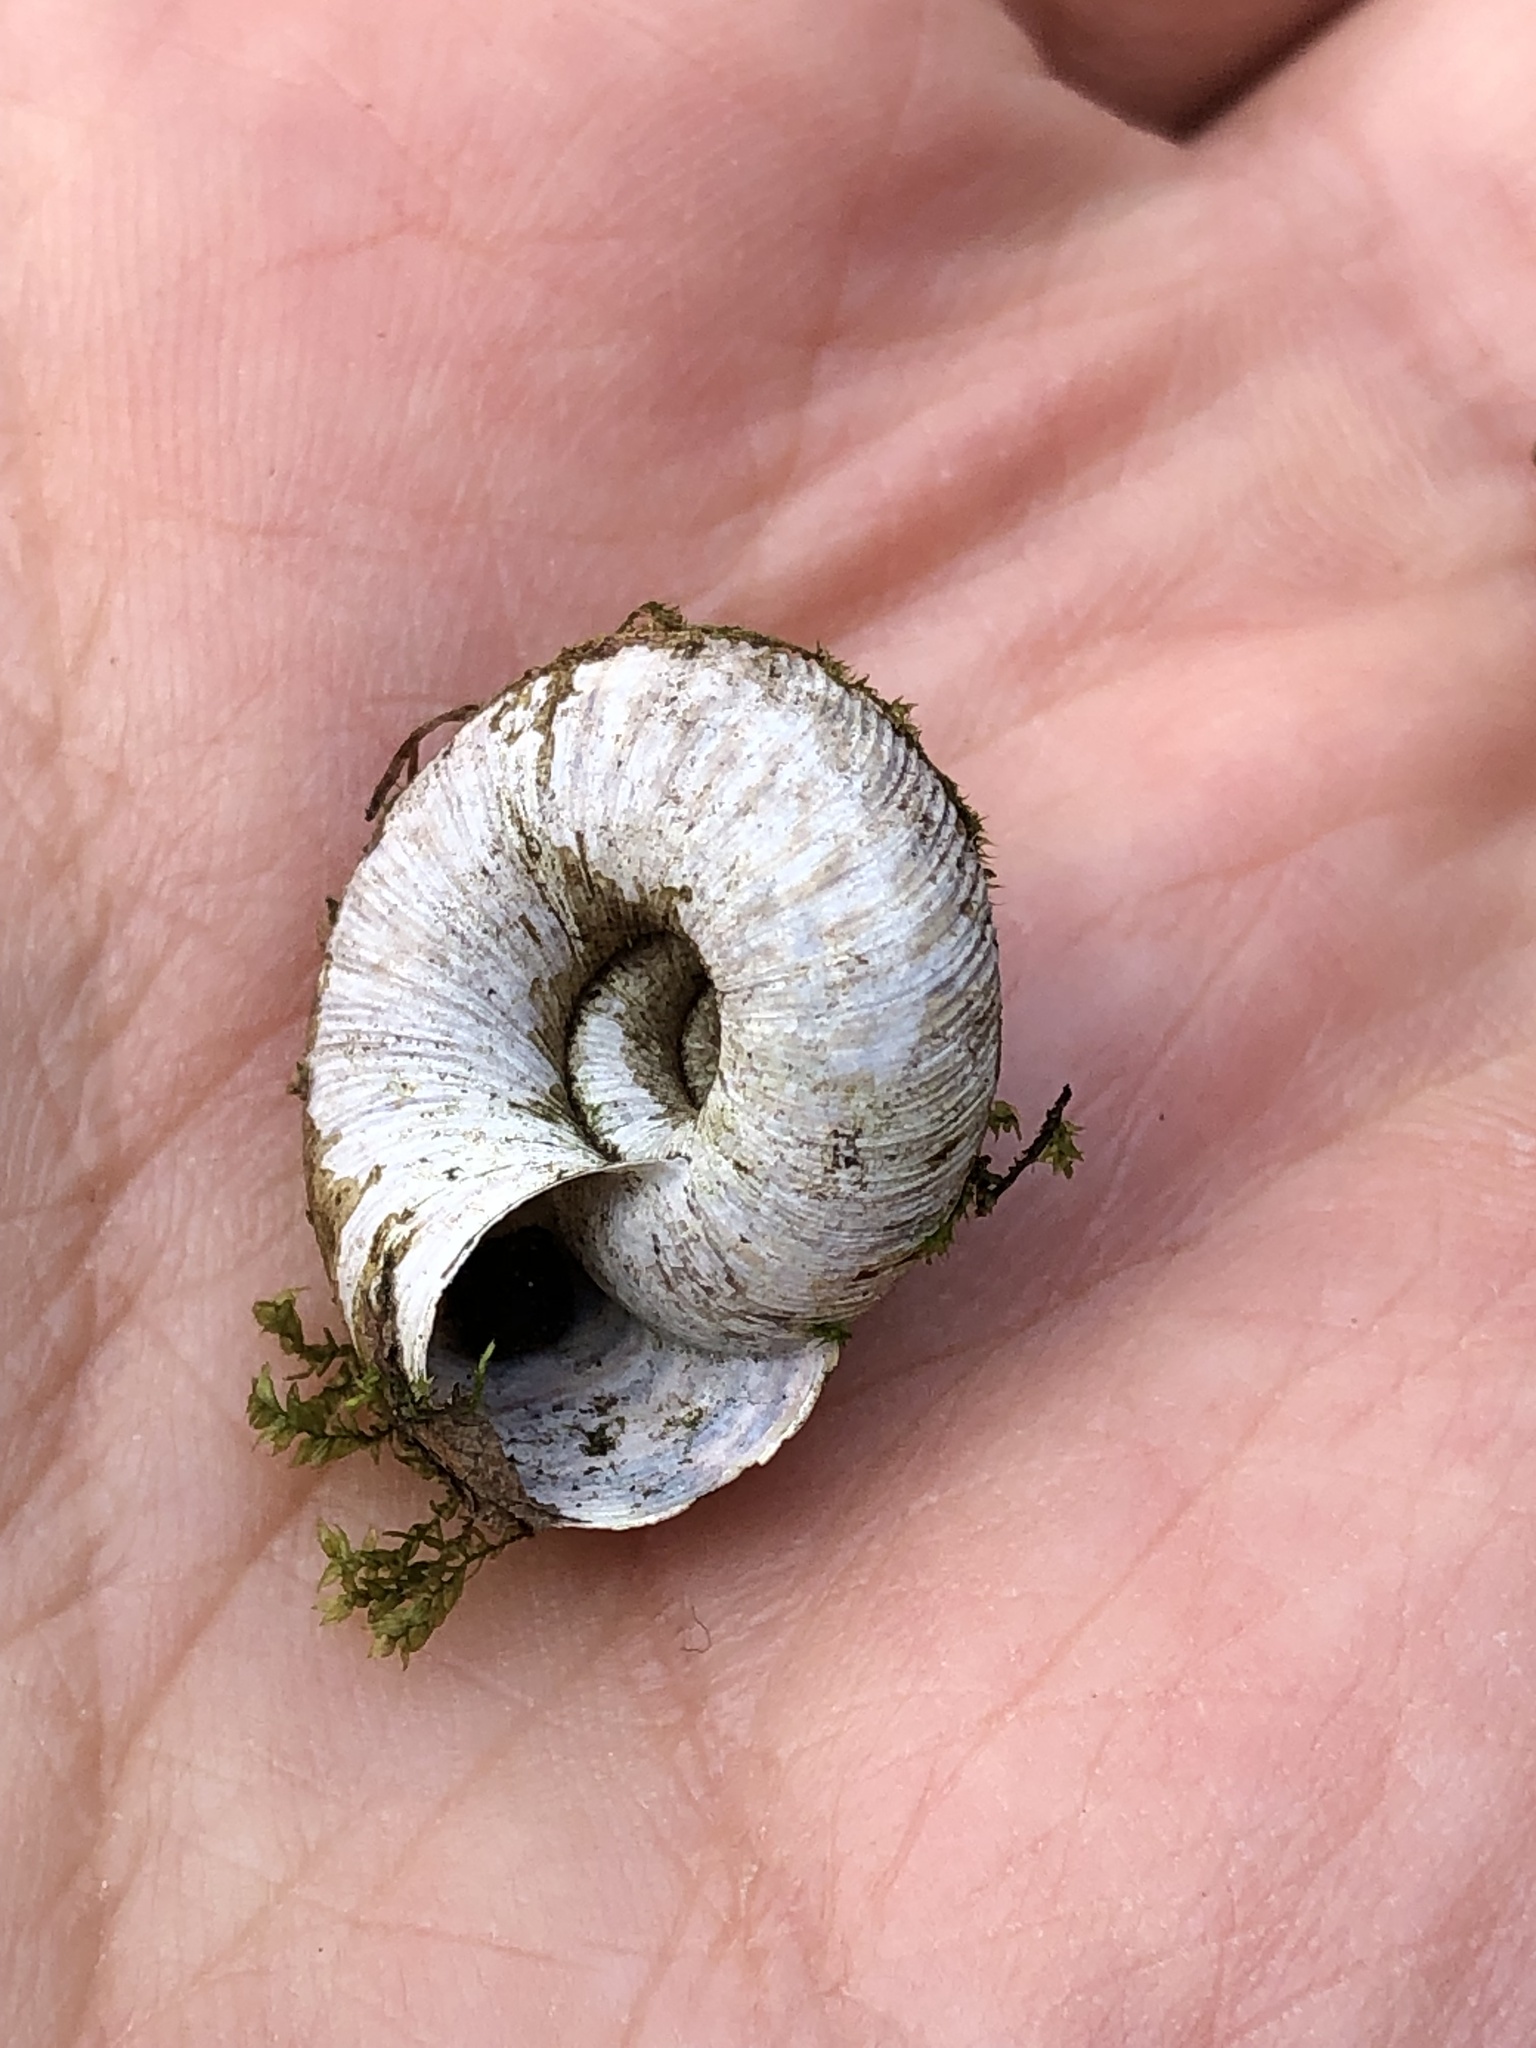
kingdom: Animalia
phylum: Mollusca
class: Gastropoda
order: Stylommatophora
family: Discidae
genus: Anguispira
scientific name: Anguispira alternata
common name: Flamed tigersnail
